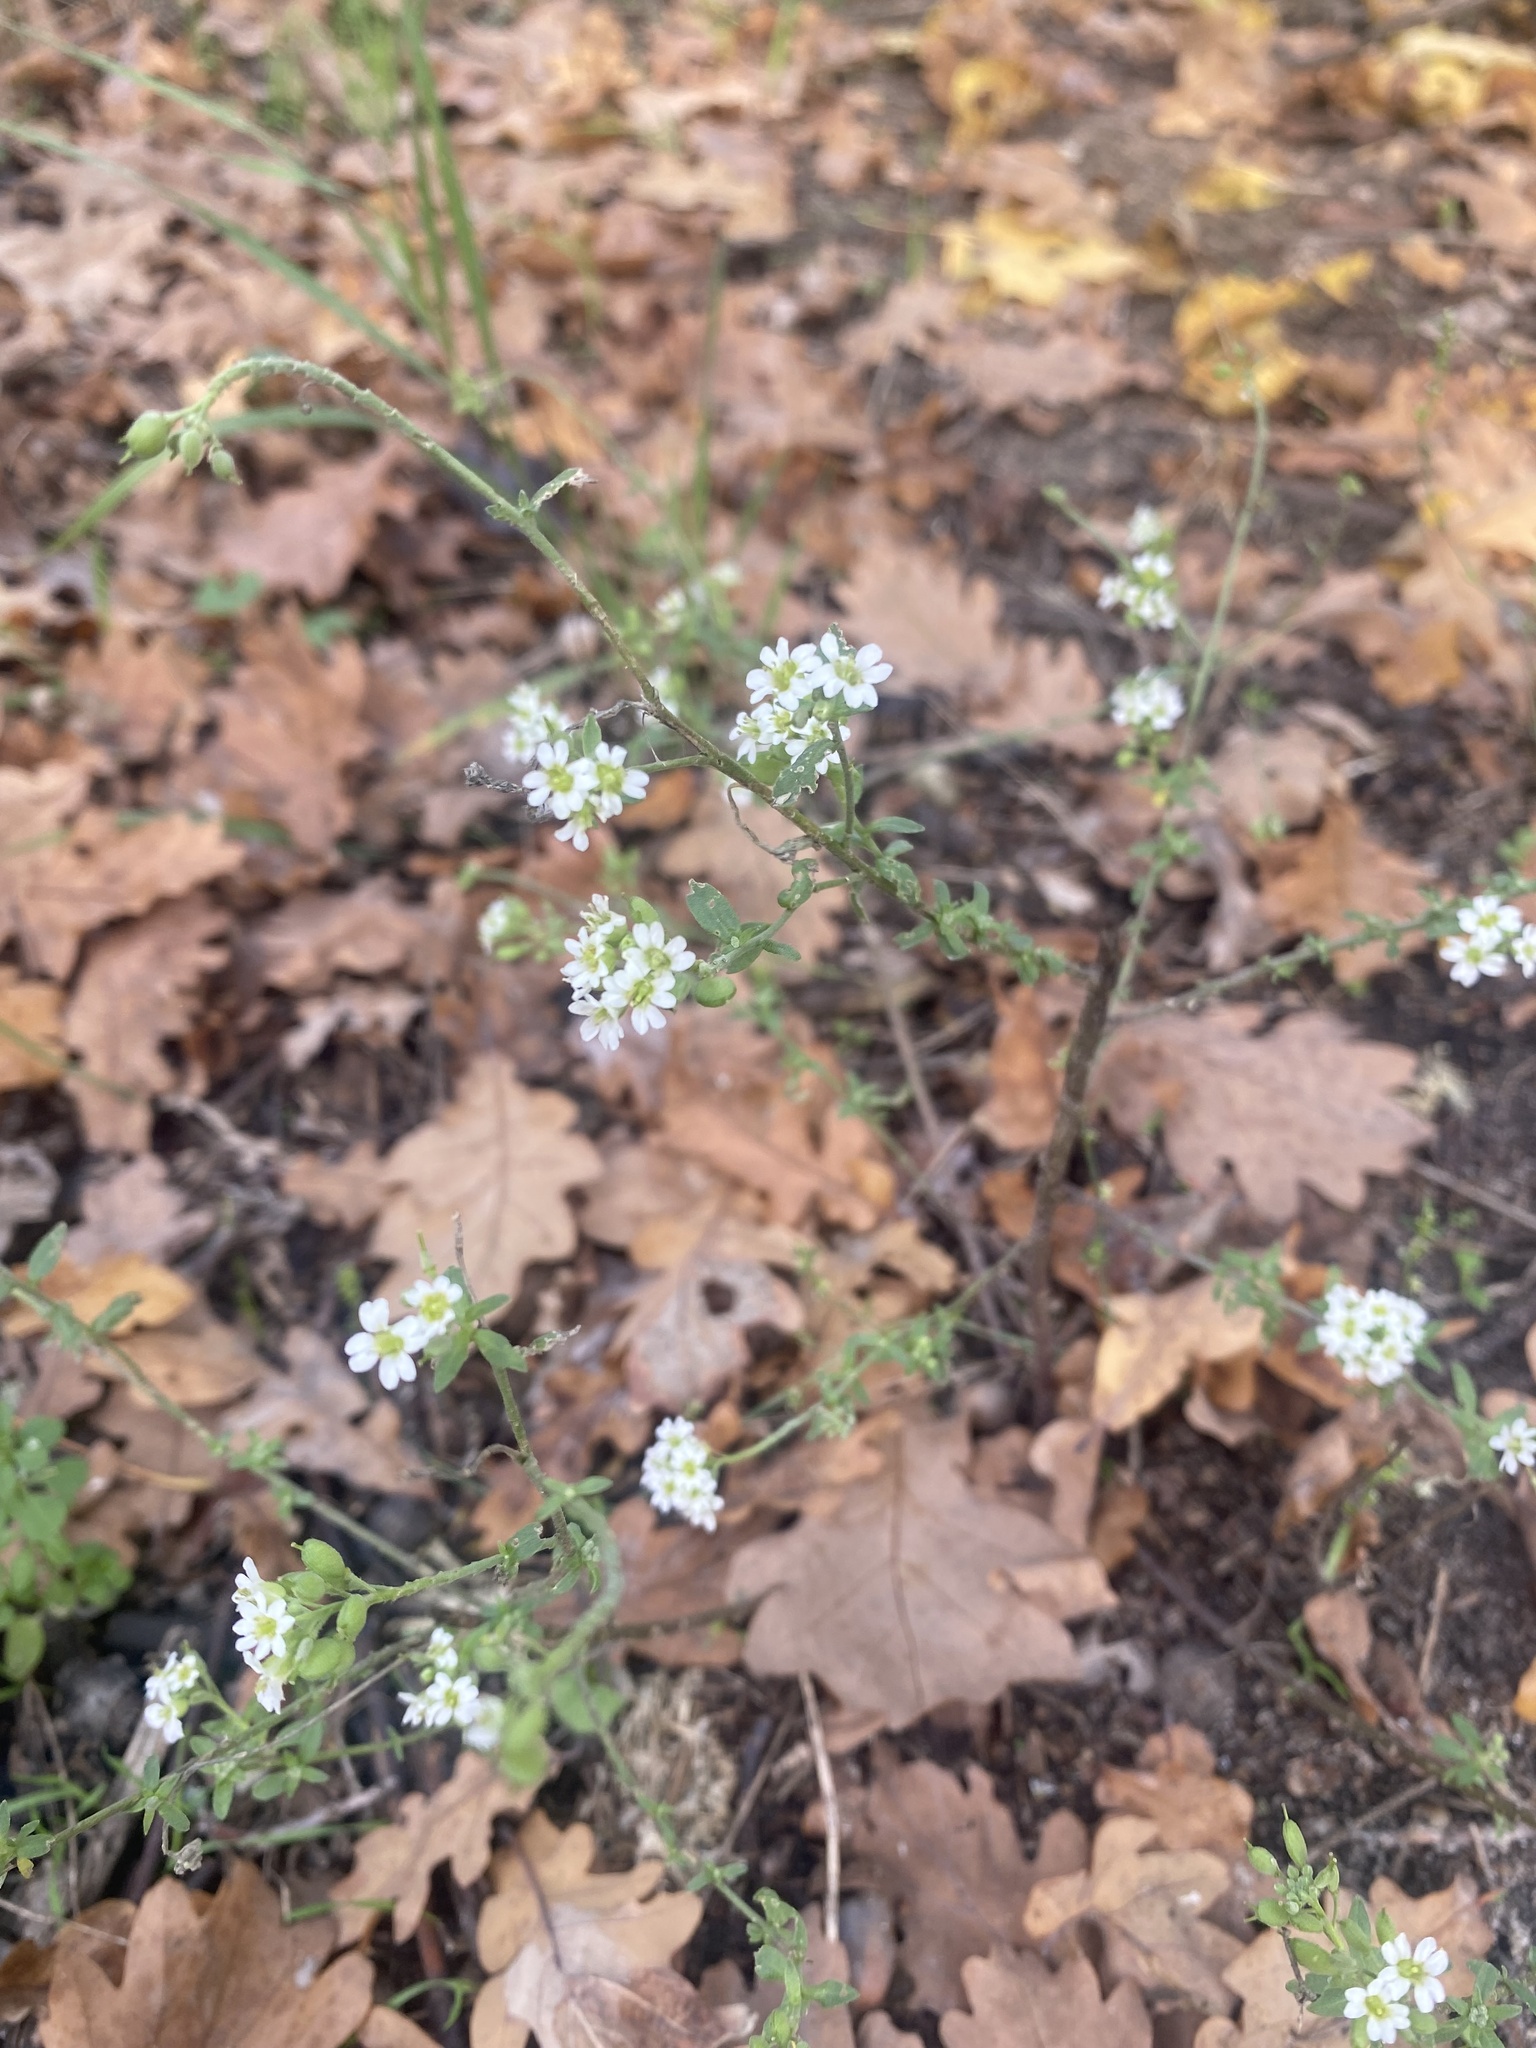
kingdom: Plantae
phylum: Tracheophyta
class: Magnoliopsida
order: Brassicales
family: Brassicaceae
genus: Berteroa
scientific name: Berteroa incana
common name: Hoary alison
